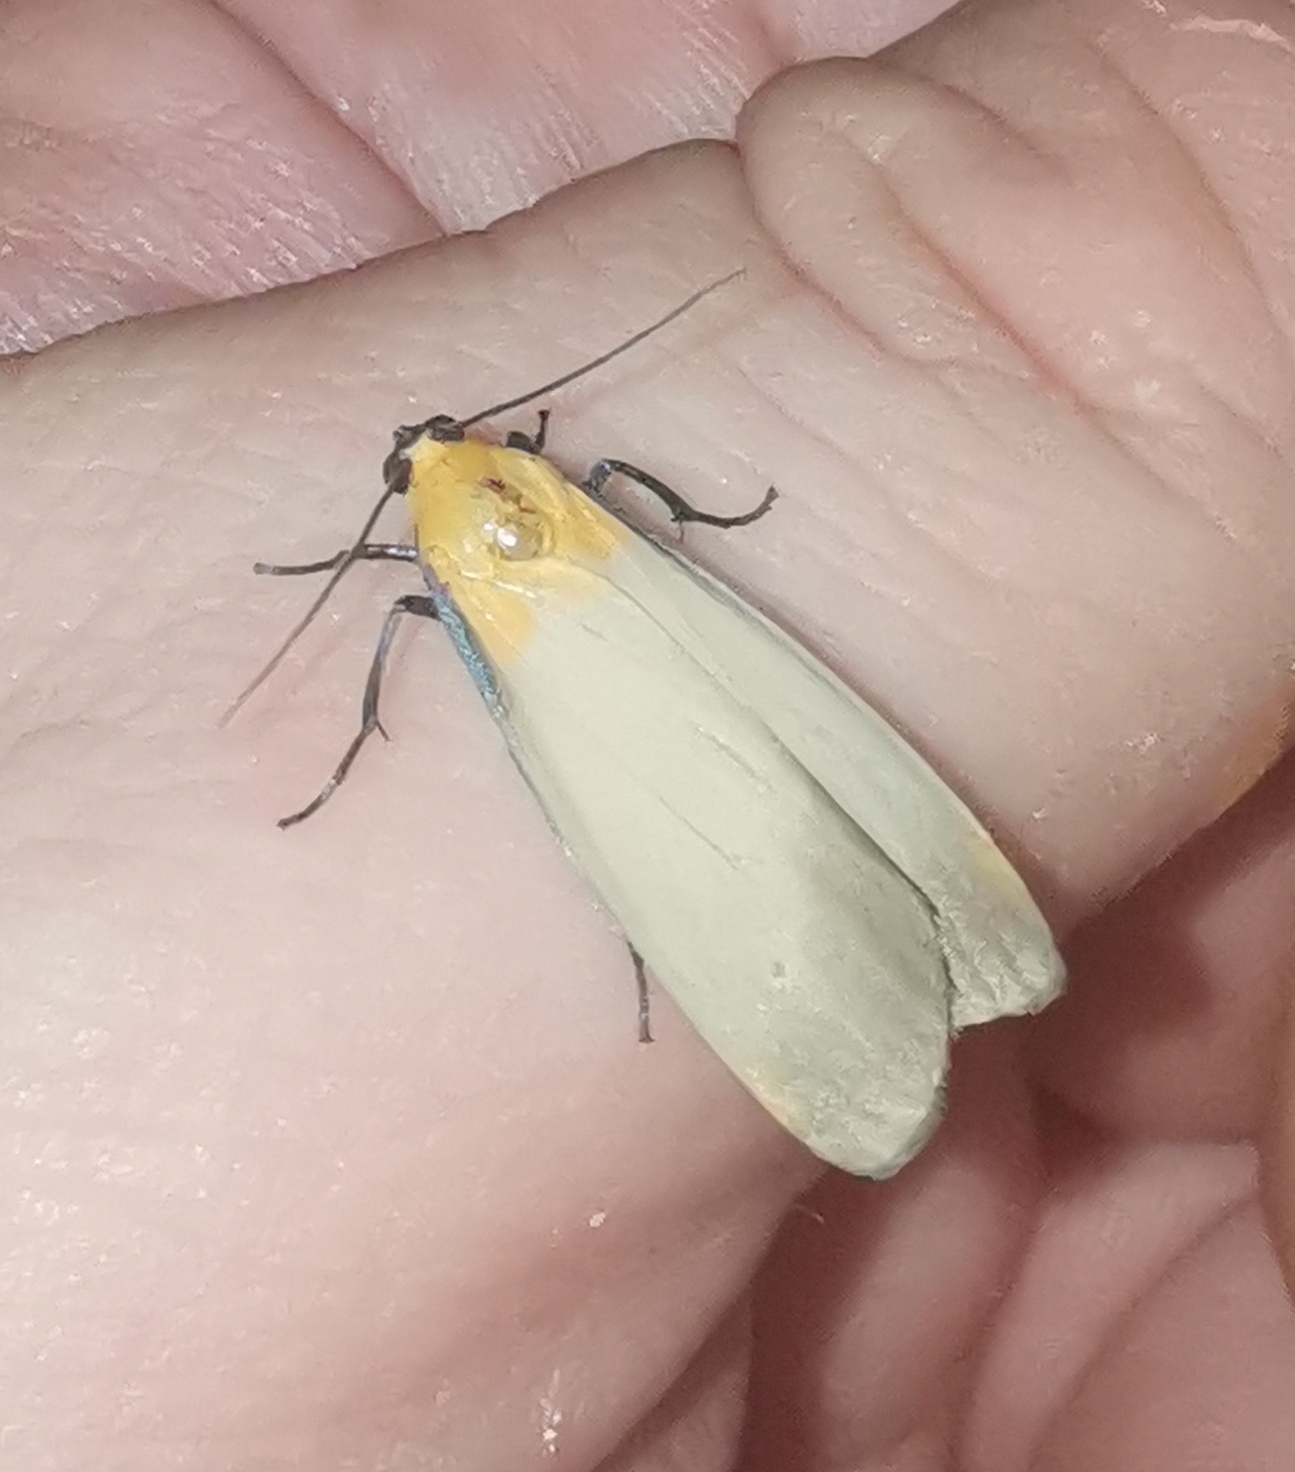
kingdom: Animalia
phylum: Arthropoda
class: Insecta
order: Lepidoptera
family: Erebidae
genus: Lithosia
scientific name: Lithosia quadra
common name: Four-spotted footman
